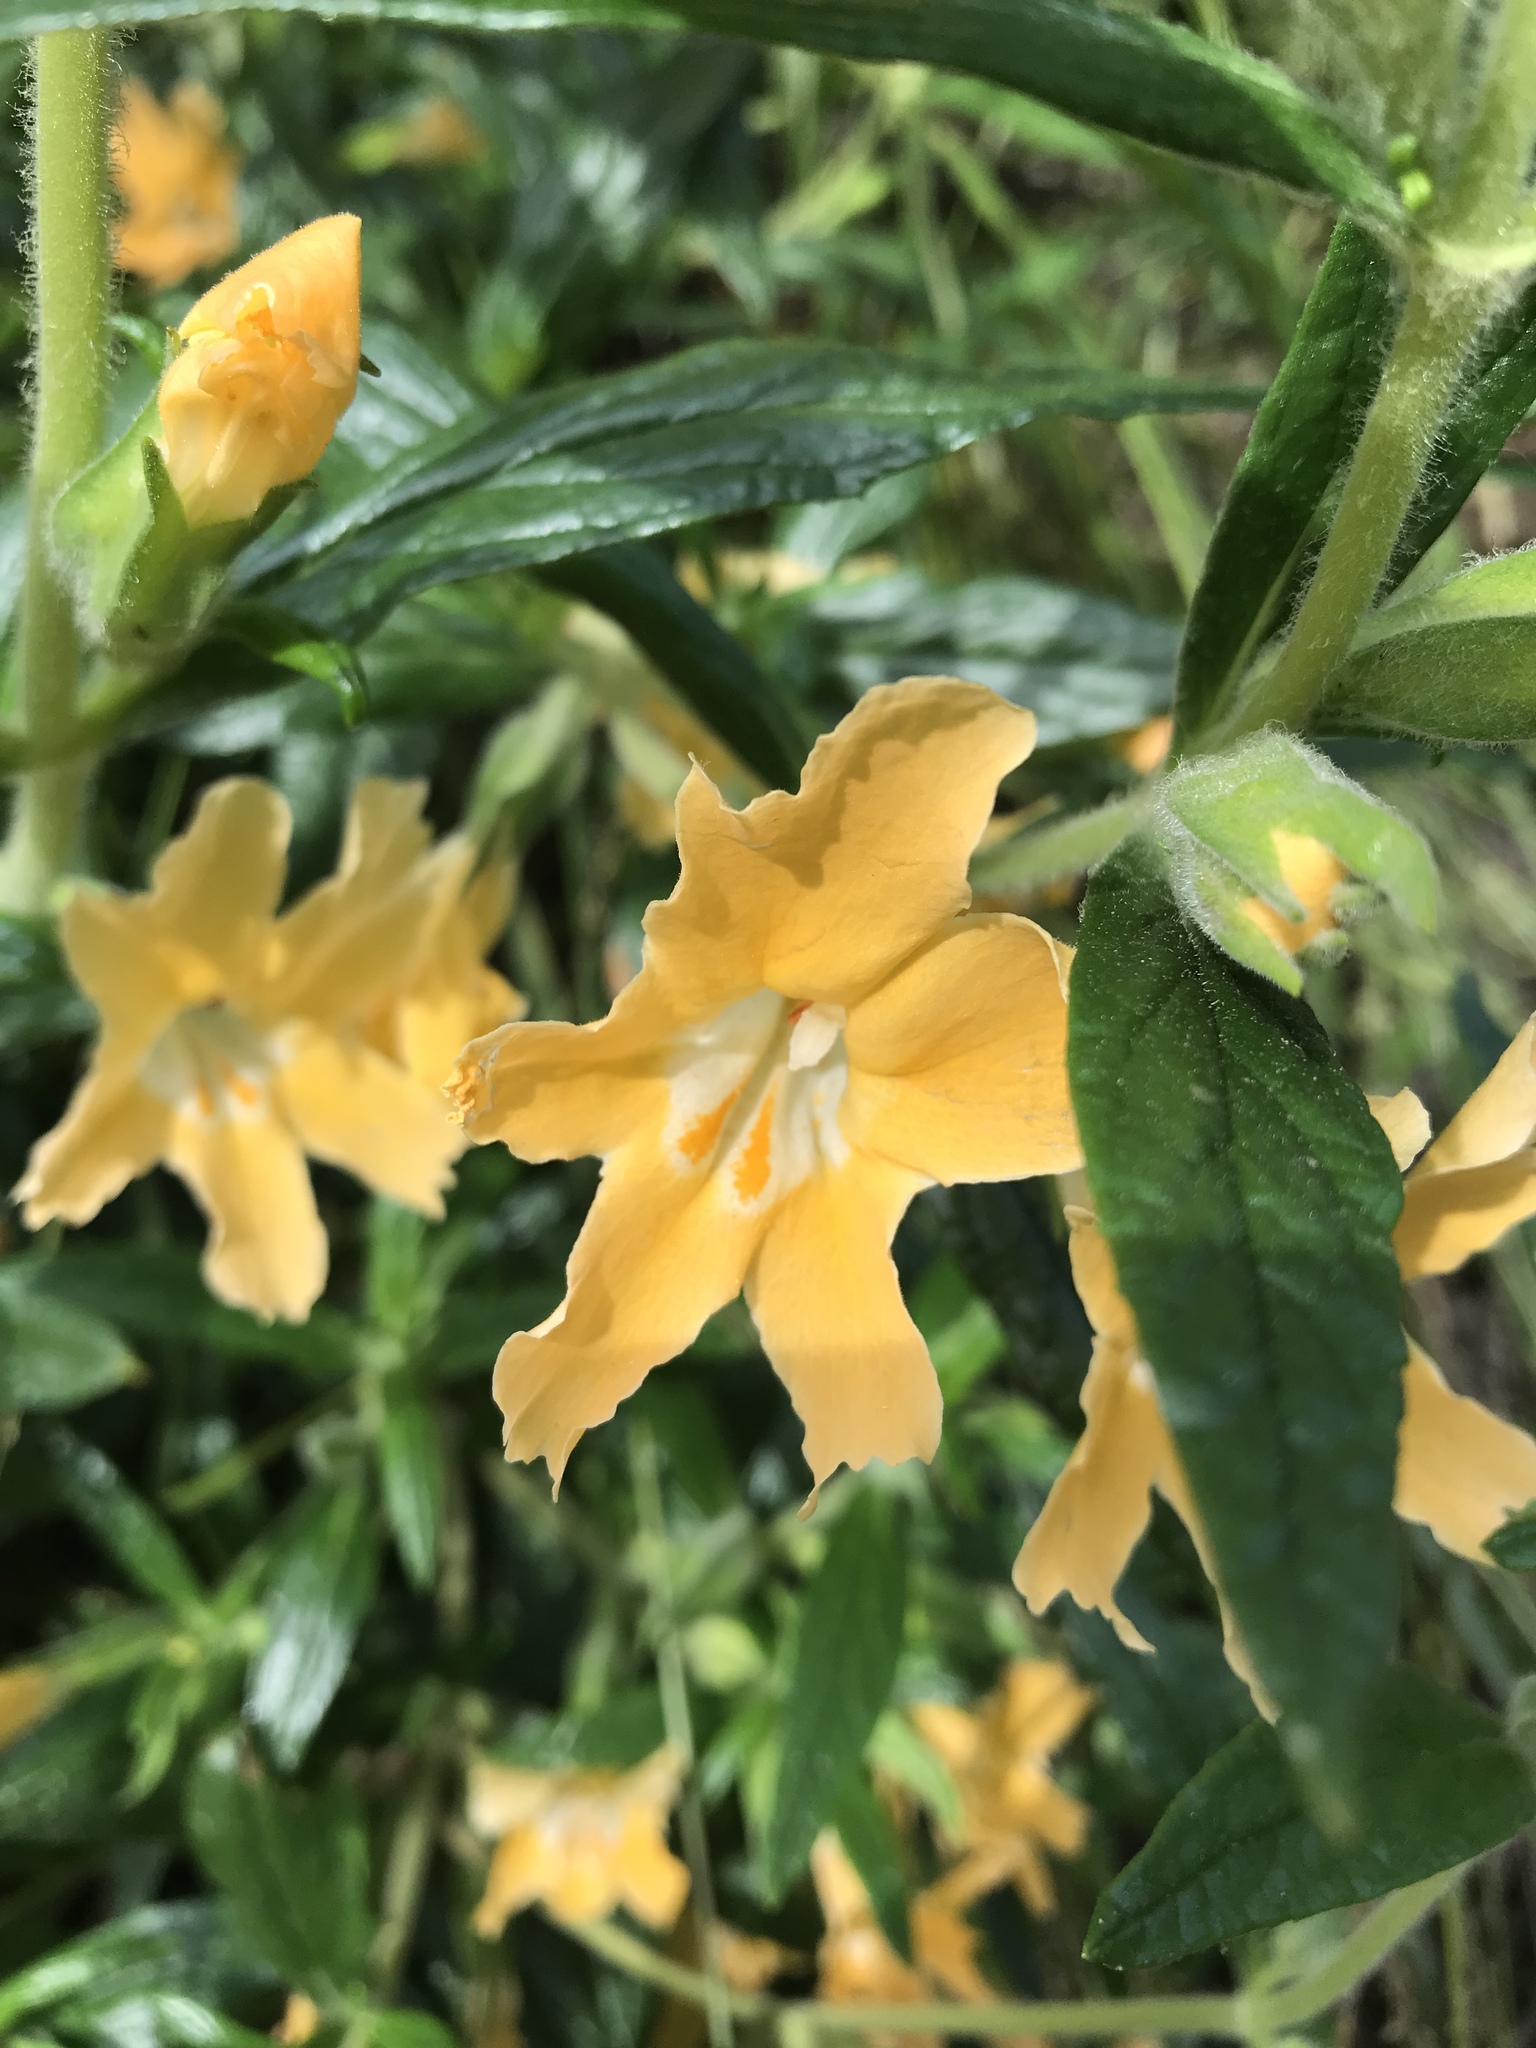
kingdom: Plantae
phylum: Tracheophyta
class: Magnoliopsida
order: Lamiales
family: Phrymaceae
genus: Diplacus
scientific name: Diplacus longiflorus
